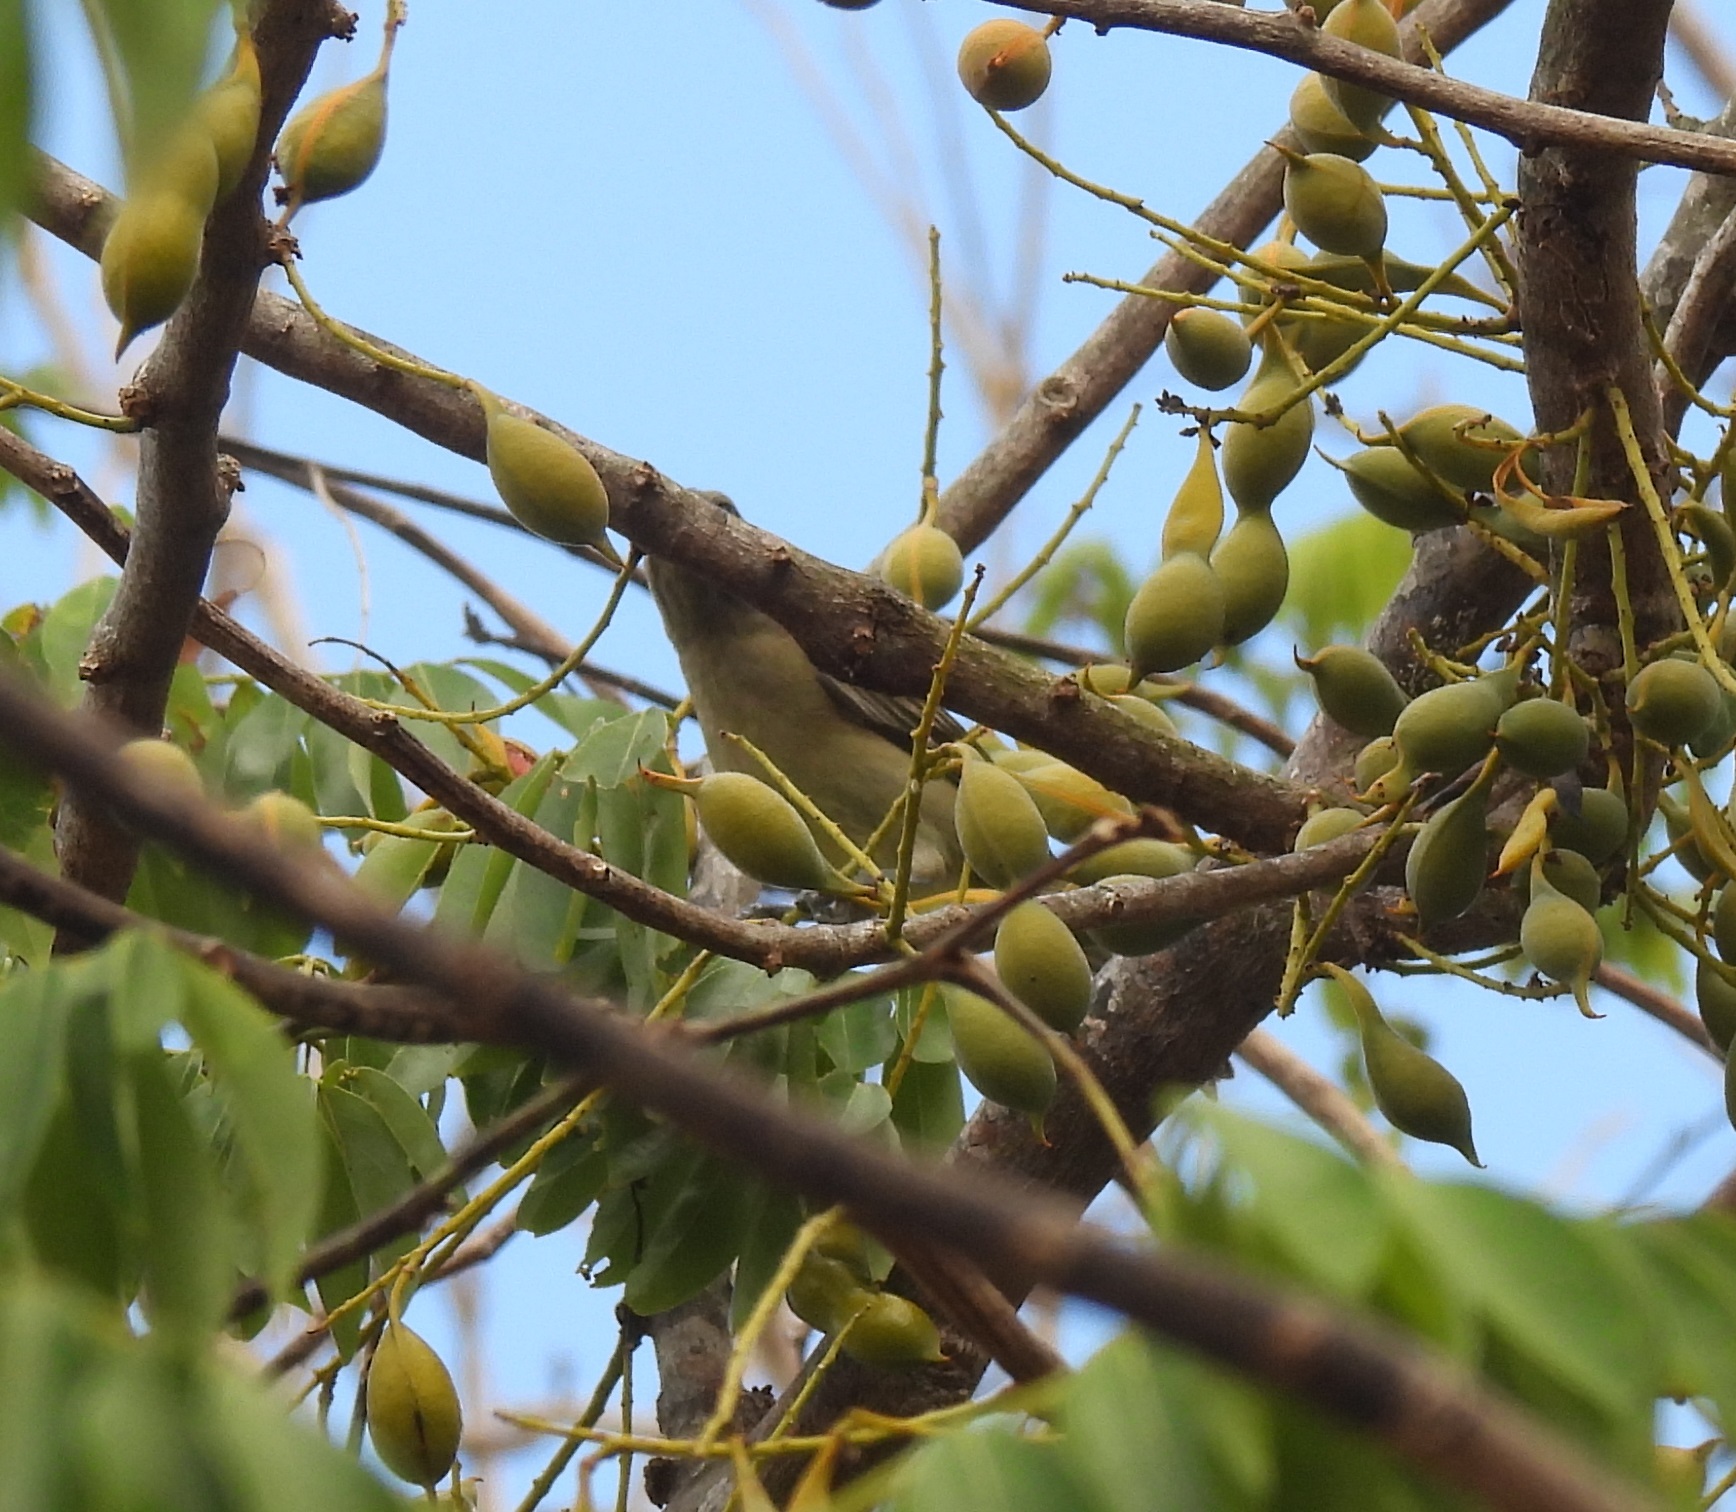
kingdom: Animalia
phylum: Chordata
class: Aves
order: Passeriformes
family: Spindalidae
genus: Spindalis
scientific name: Spindalis zena
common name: Western spindalis
